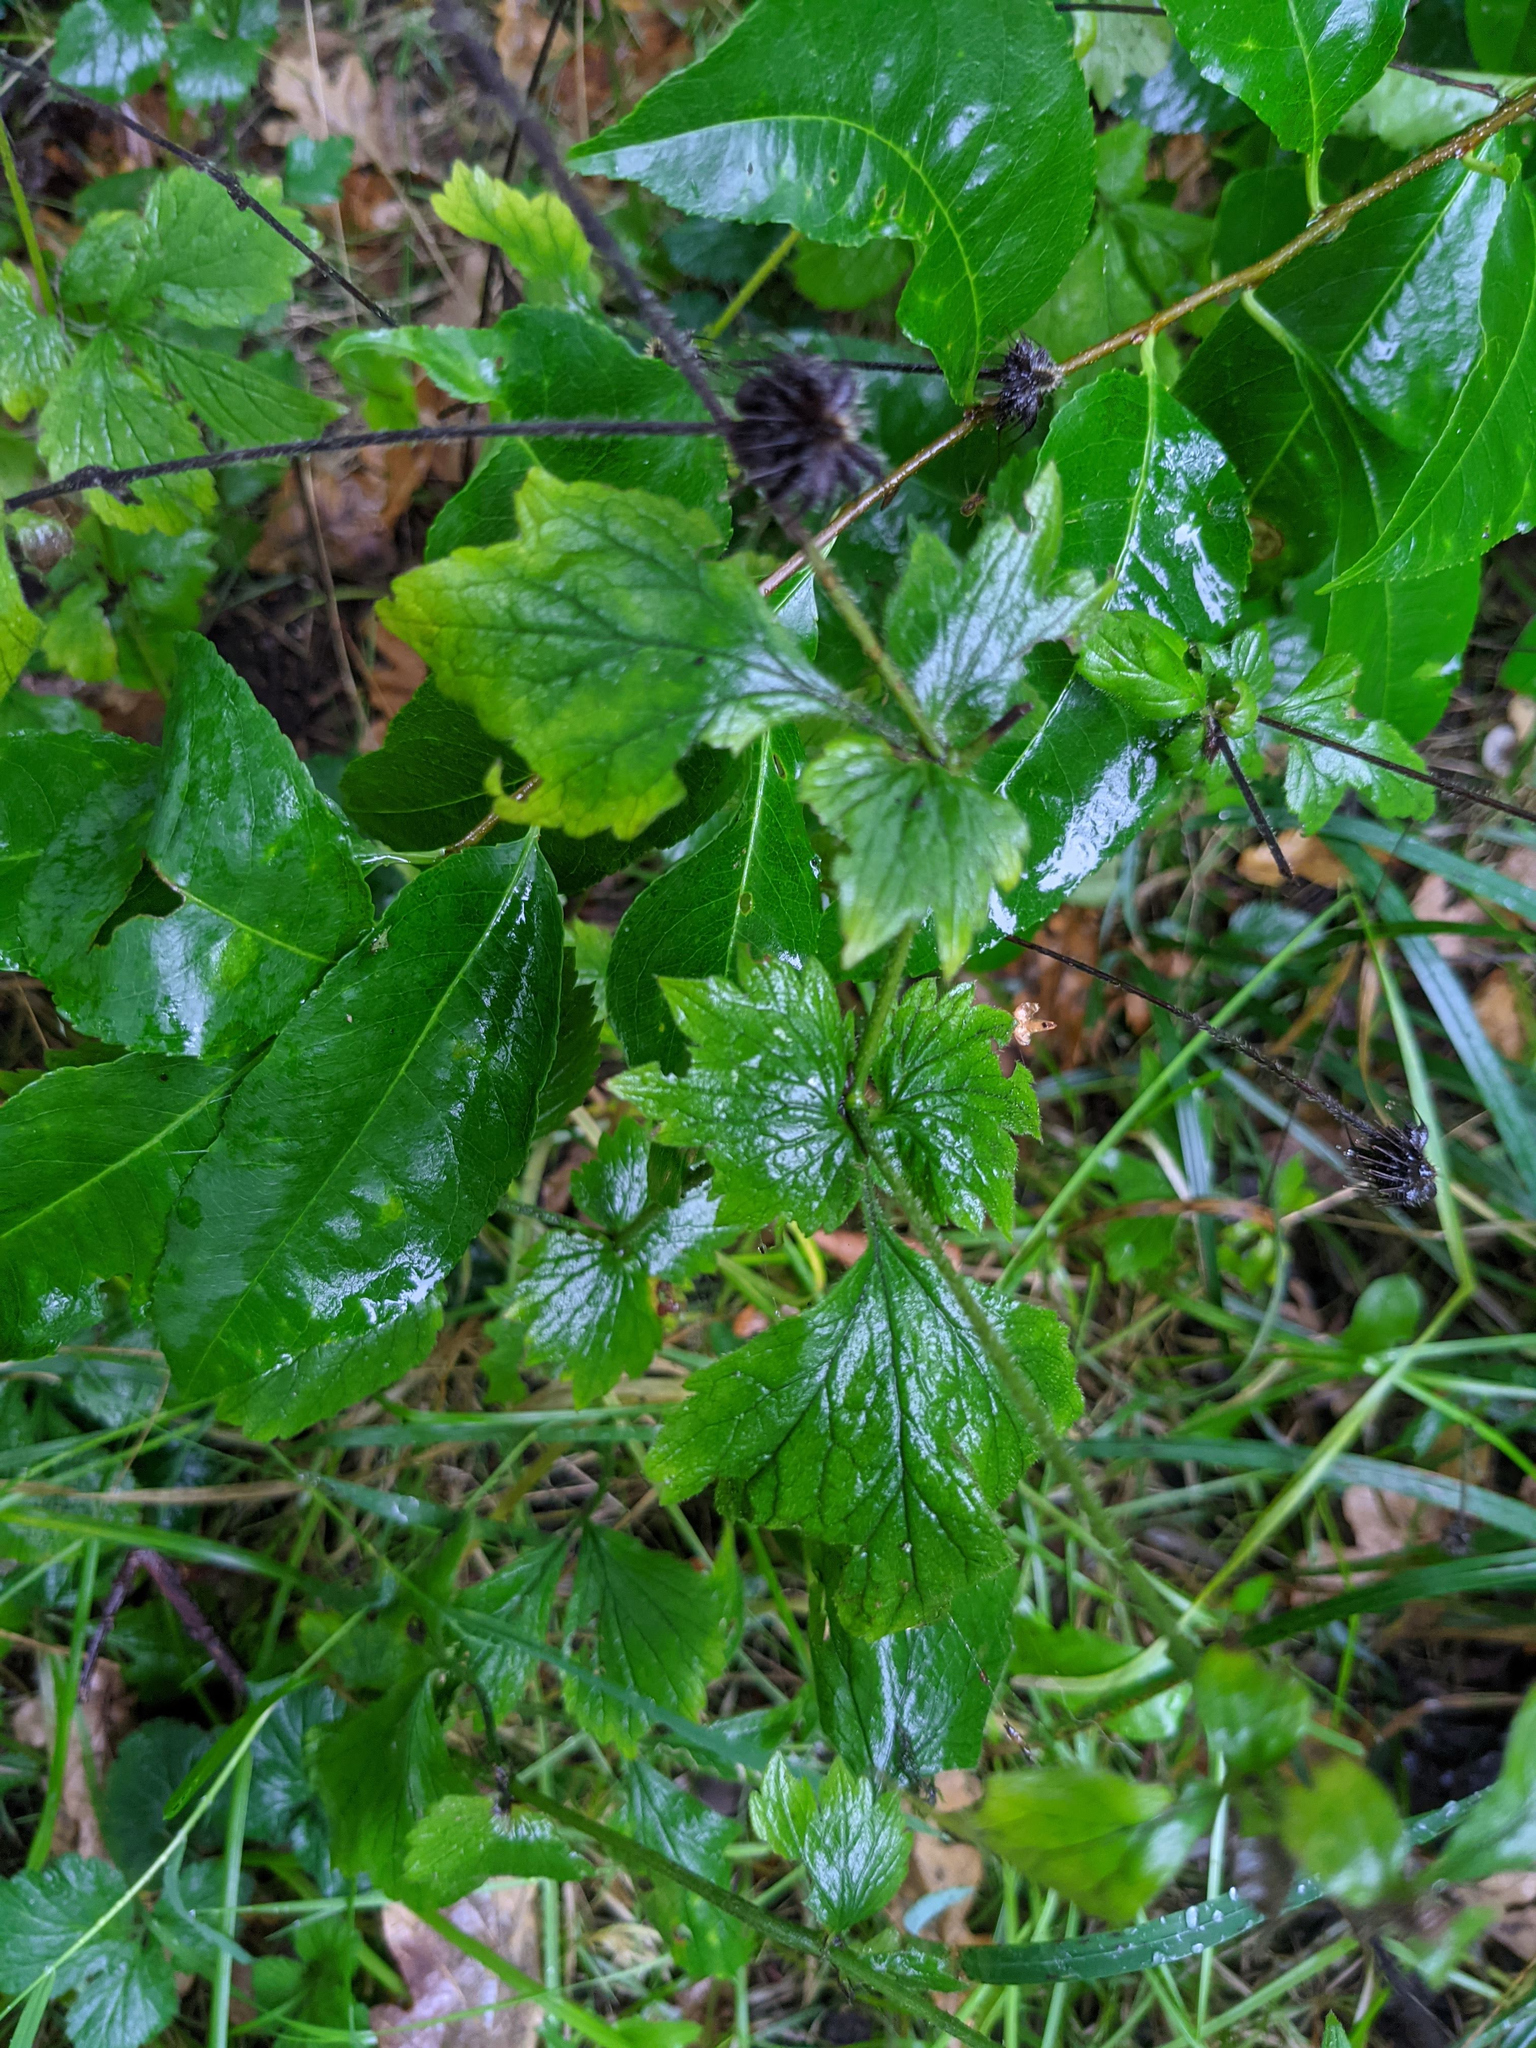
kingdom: Plantae
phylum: Tracheophyta
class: Magnoliopsida
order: Rosales
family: Rosaceae
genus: Geum
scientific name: Geum urbanum
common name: Wood avens
